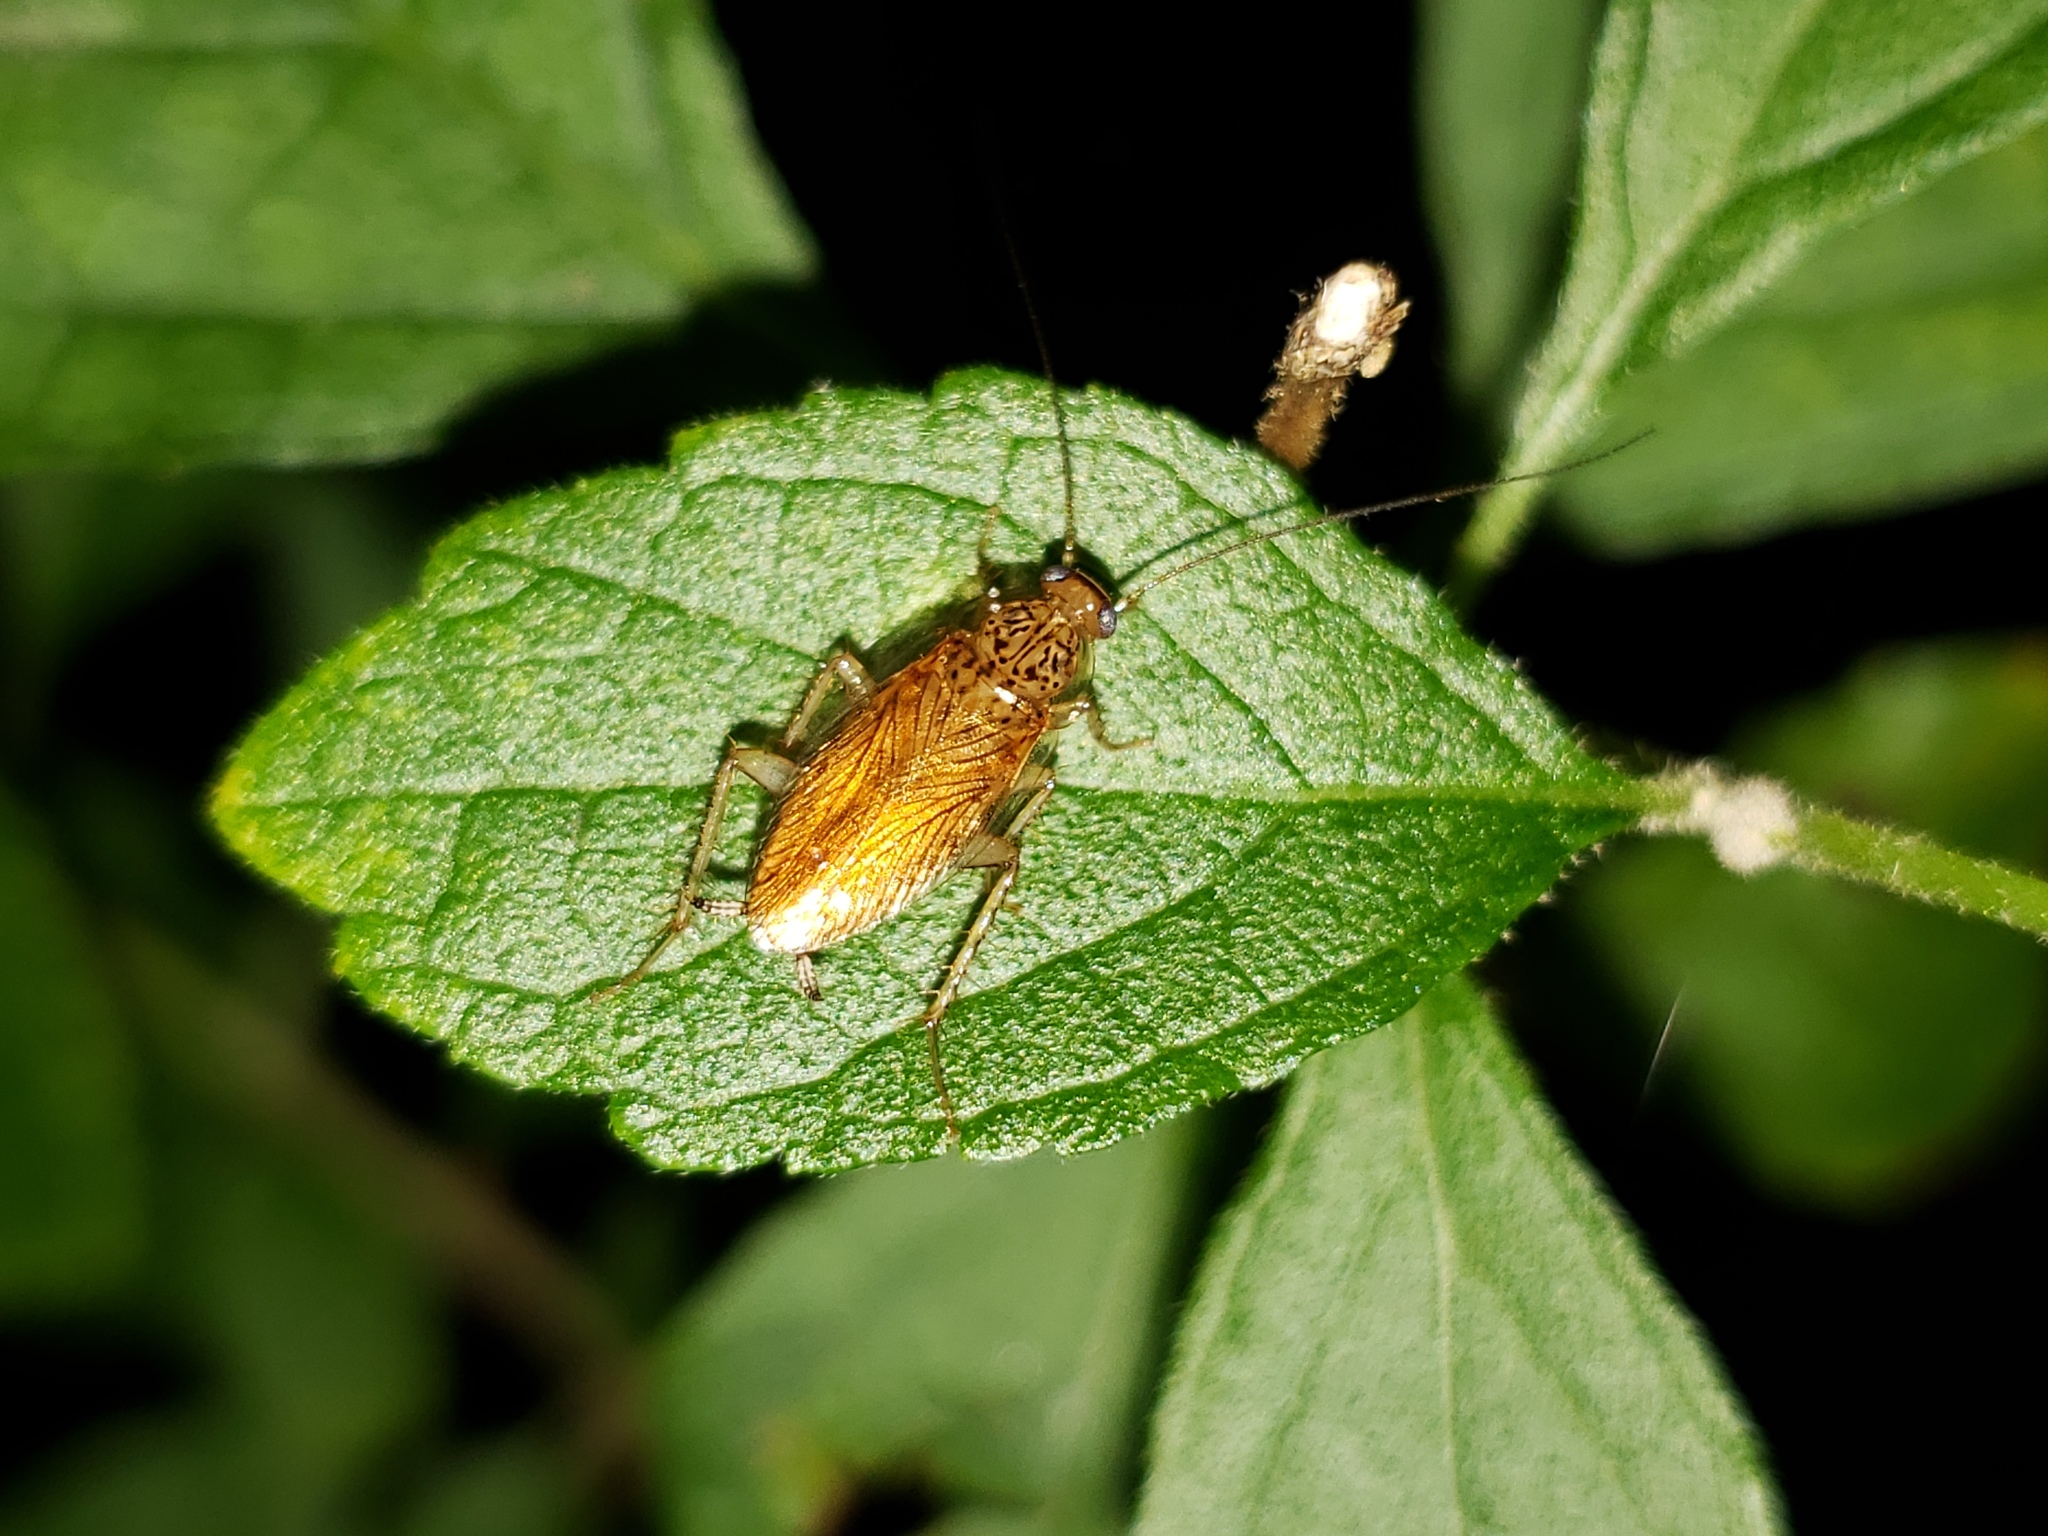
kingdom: Animalia
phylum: Arthropoda
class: Insecta
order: Blattodea
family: Ectobiidae
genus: Cariblatta
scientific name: Cariblatta lutea
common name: Small yellow cockroach
